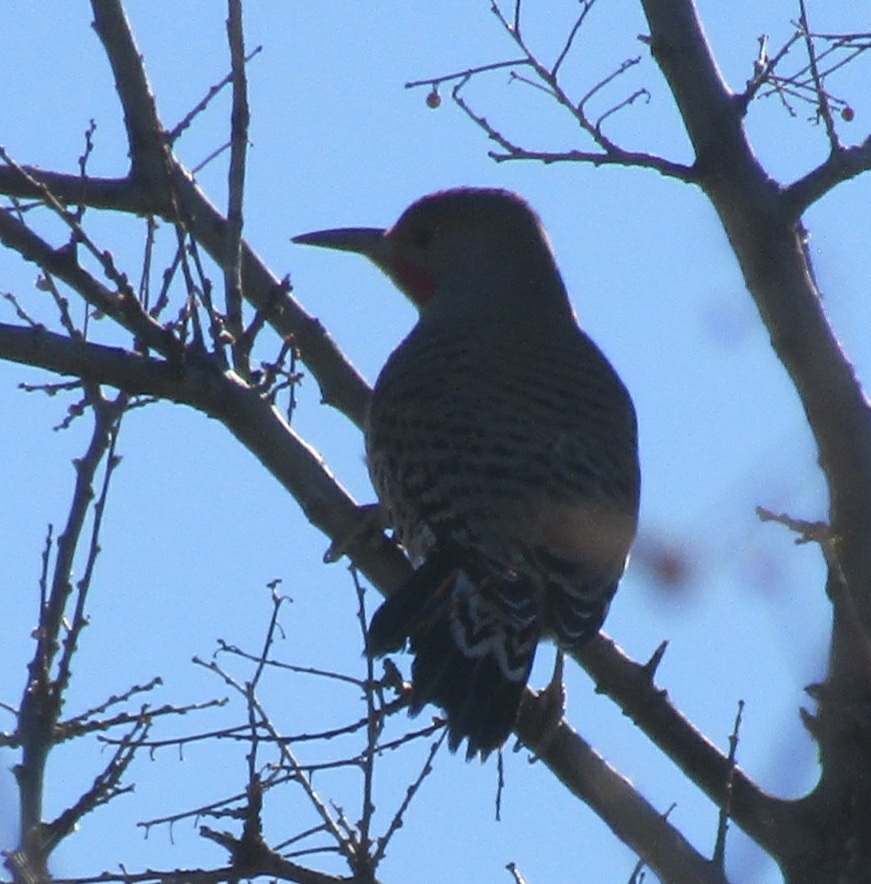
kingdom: Animalia
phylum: Chordata
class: Aves
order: Piciformes
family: Picidae
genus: Colaptes
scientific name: Colaptes auratus
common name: Northern flicker
